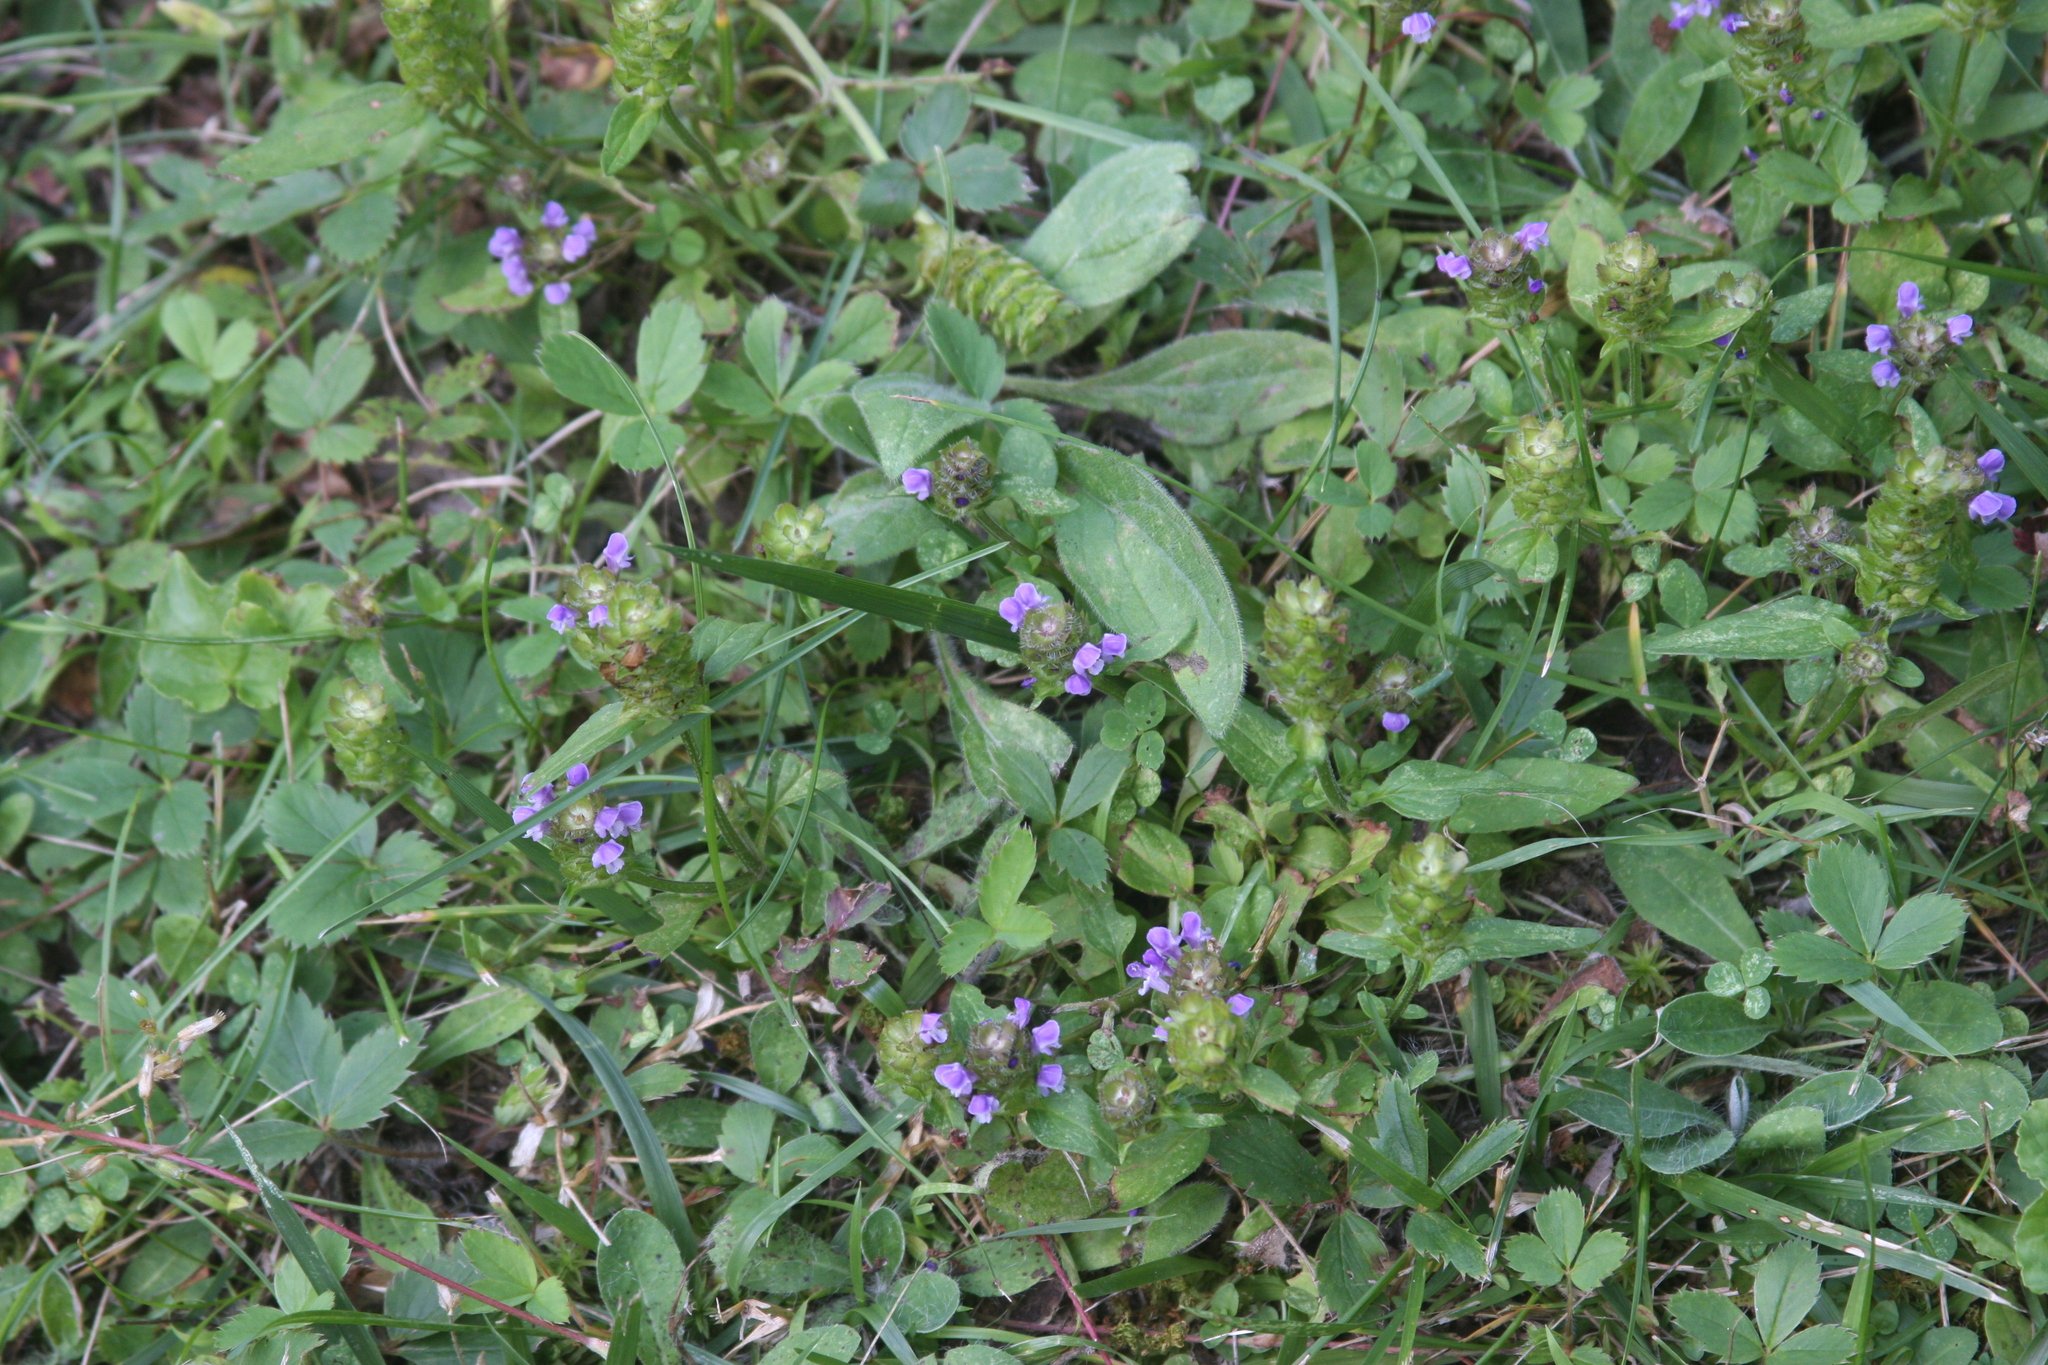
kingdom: Plantae
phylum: Tracheophyta
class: Magnoliopsida
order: Lamiales
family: Lamiaceae
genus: Prunella
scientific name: Prunella vulgaris
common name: Heal-all
